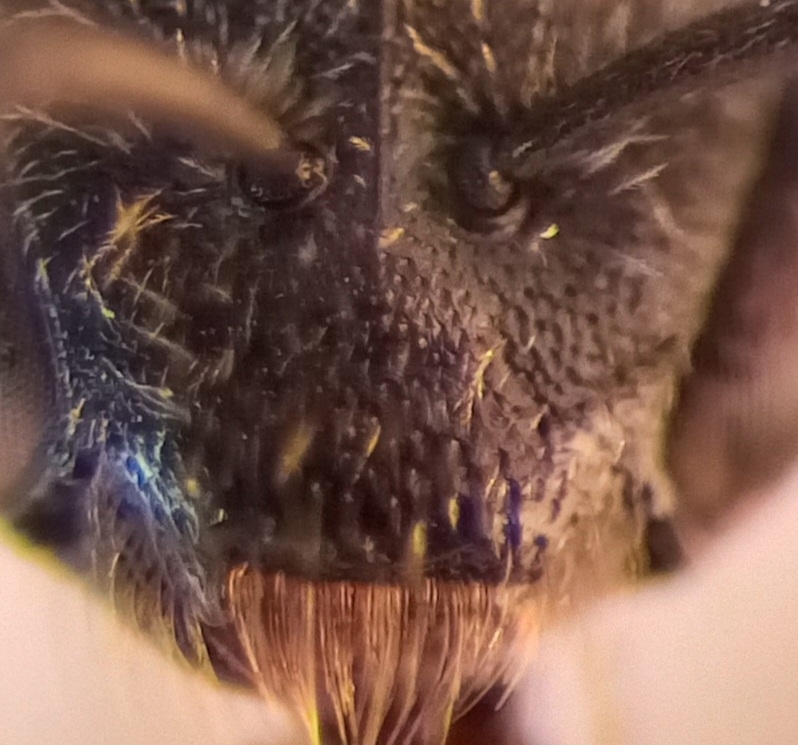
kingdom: Animalia
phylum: Arthropoda
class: Insecta
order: Hymenoptera
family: Halictidae
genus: Lasioglossum
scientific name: Lasioglossum pygmaeum
